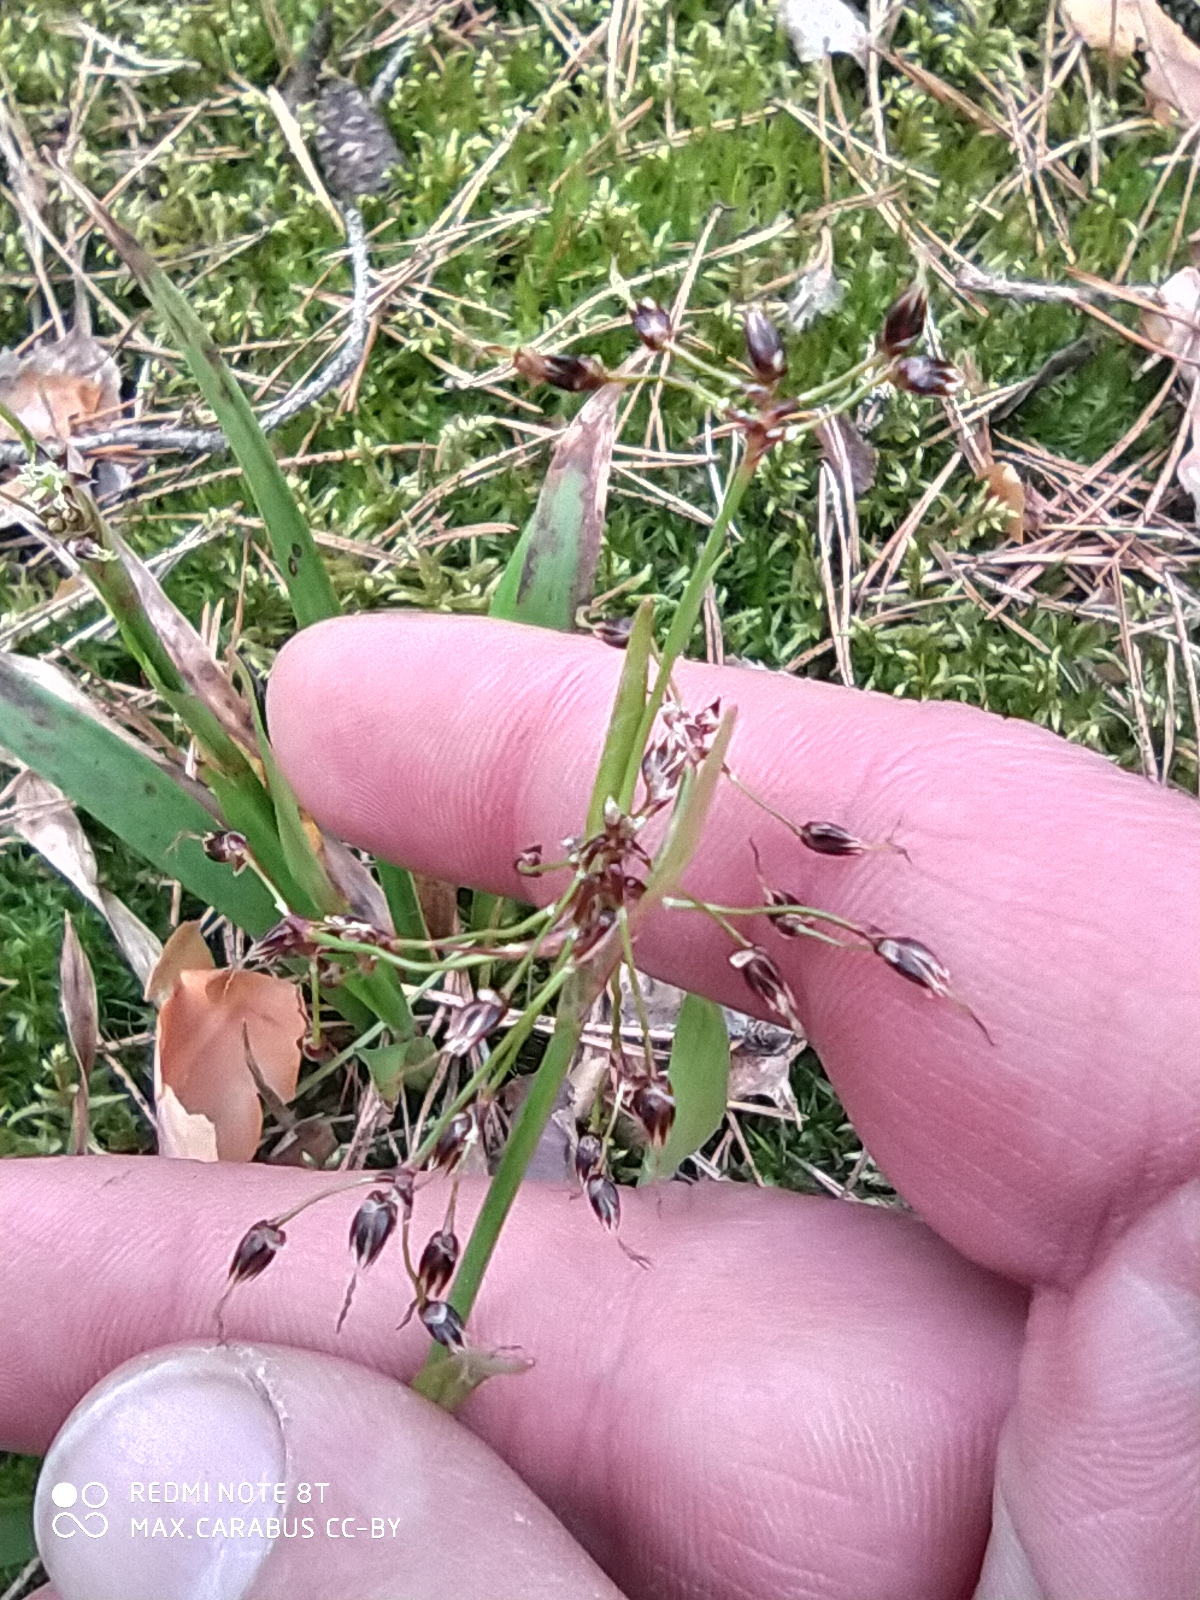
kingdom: Plantae
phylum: Tracheophyta
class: Liliopsida
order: Poales
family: Juncaceae
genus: Luzula
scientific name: Luzula pilosa
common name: Hairy wood-rush
